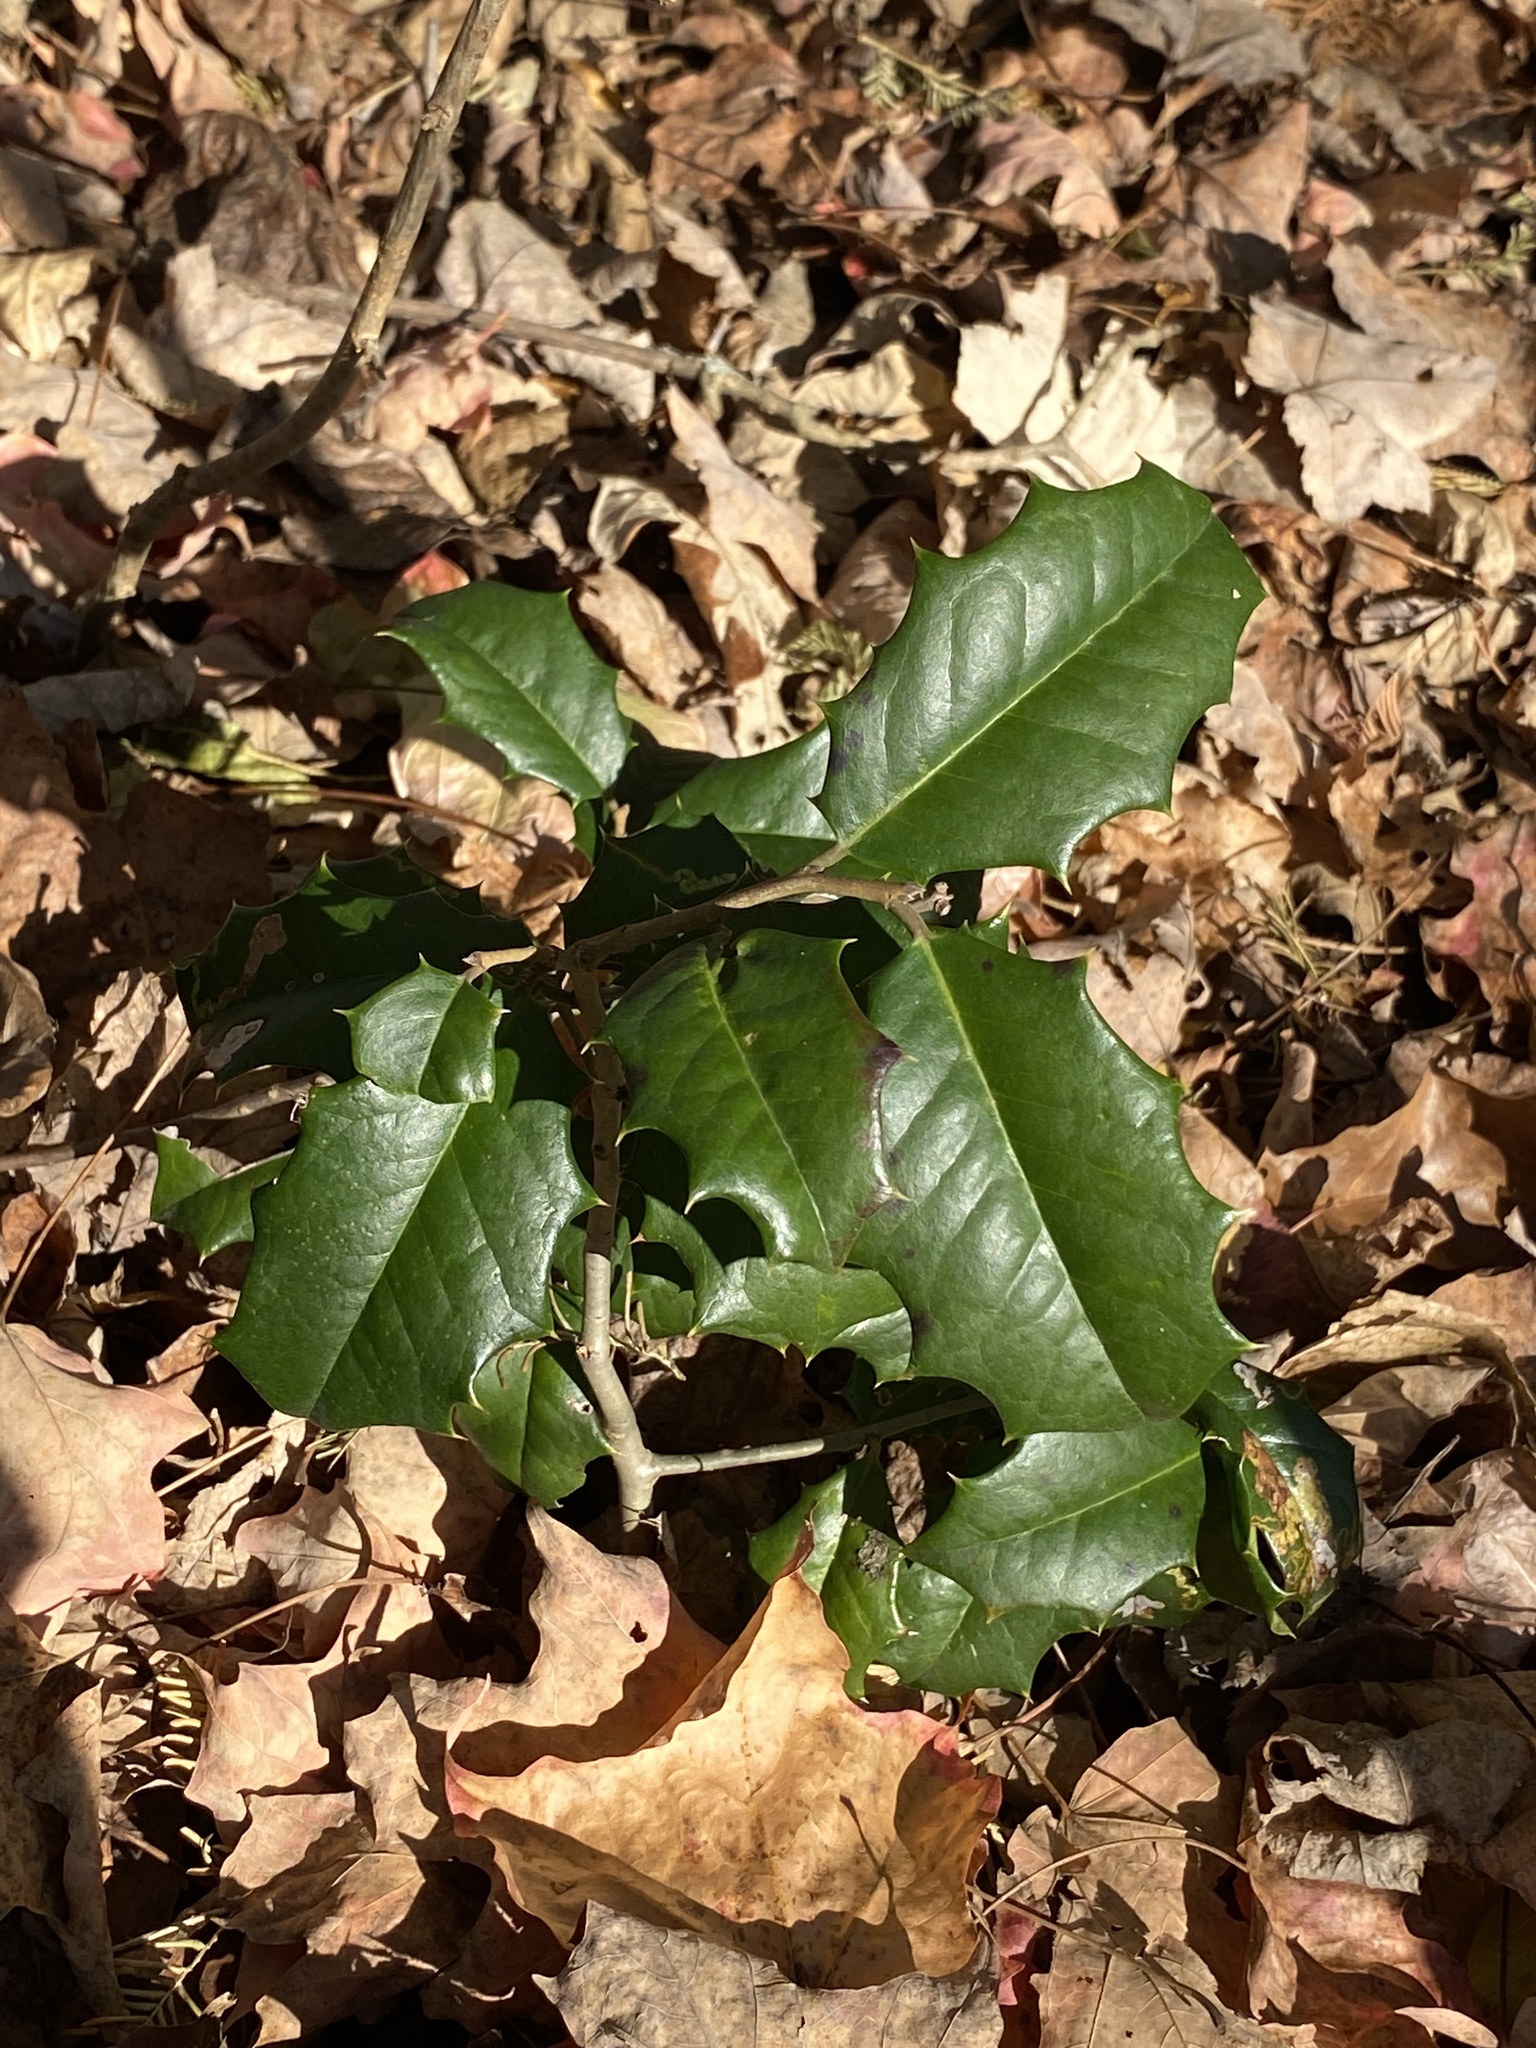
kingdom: Plantae
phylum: Tracheophyta
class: Magnoliopsida
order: Aquifoliales
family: Aquifoliaceae
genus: Ilex
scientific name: Ilex opaca
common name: American holly
